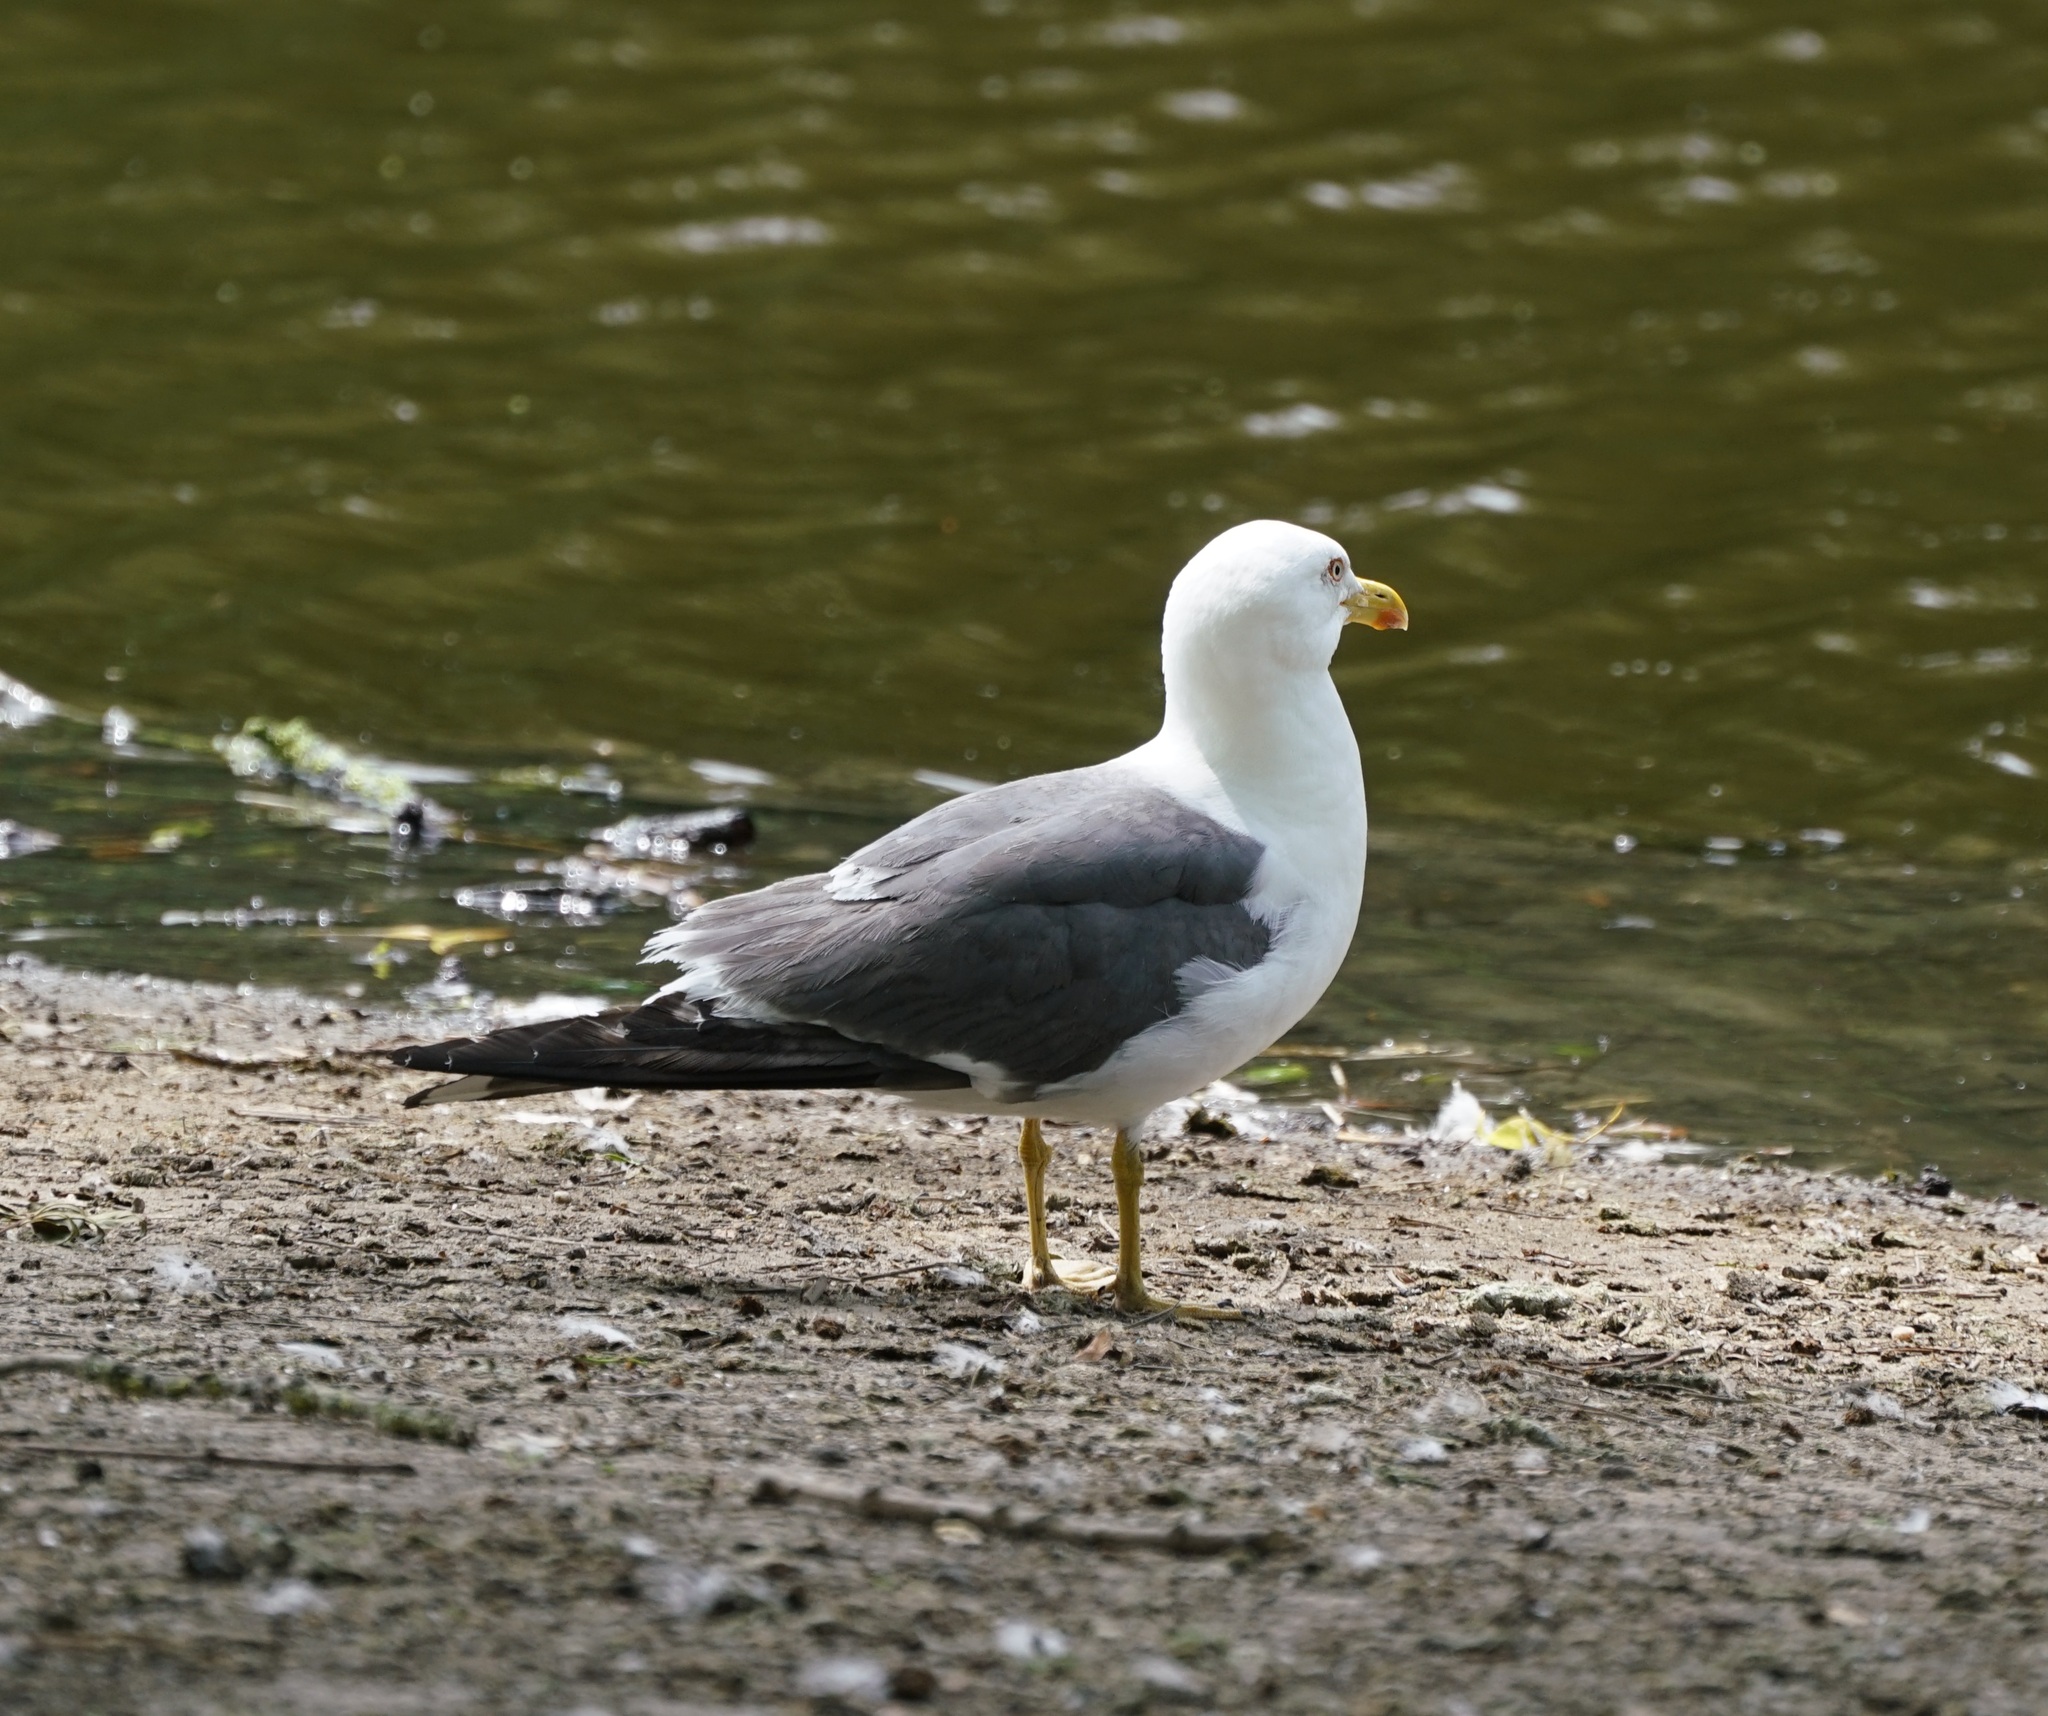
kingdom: Animalia
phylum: Chordata
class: Aves
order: Charadriiformes
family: Laridae
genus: Larus
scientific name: Larus fuscus
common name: Lesser black-backed gull
